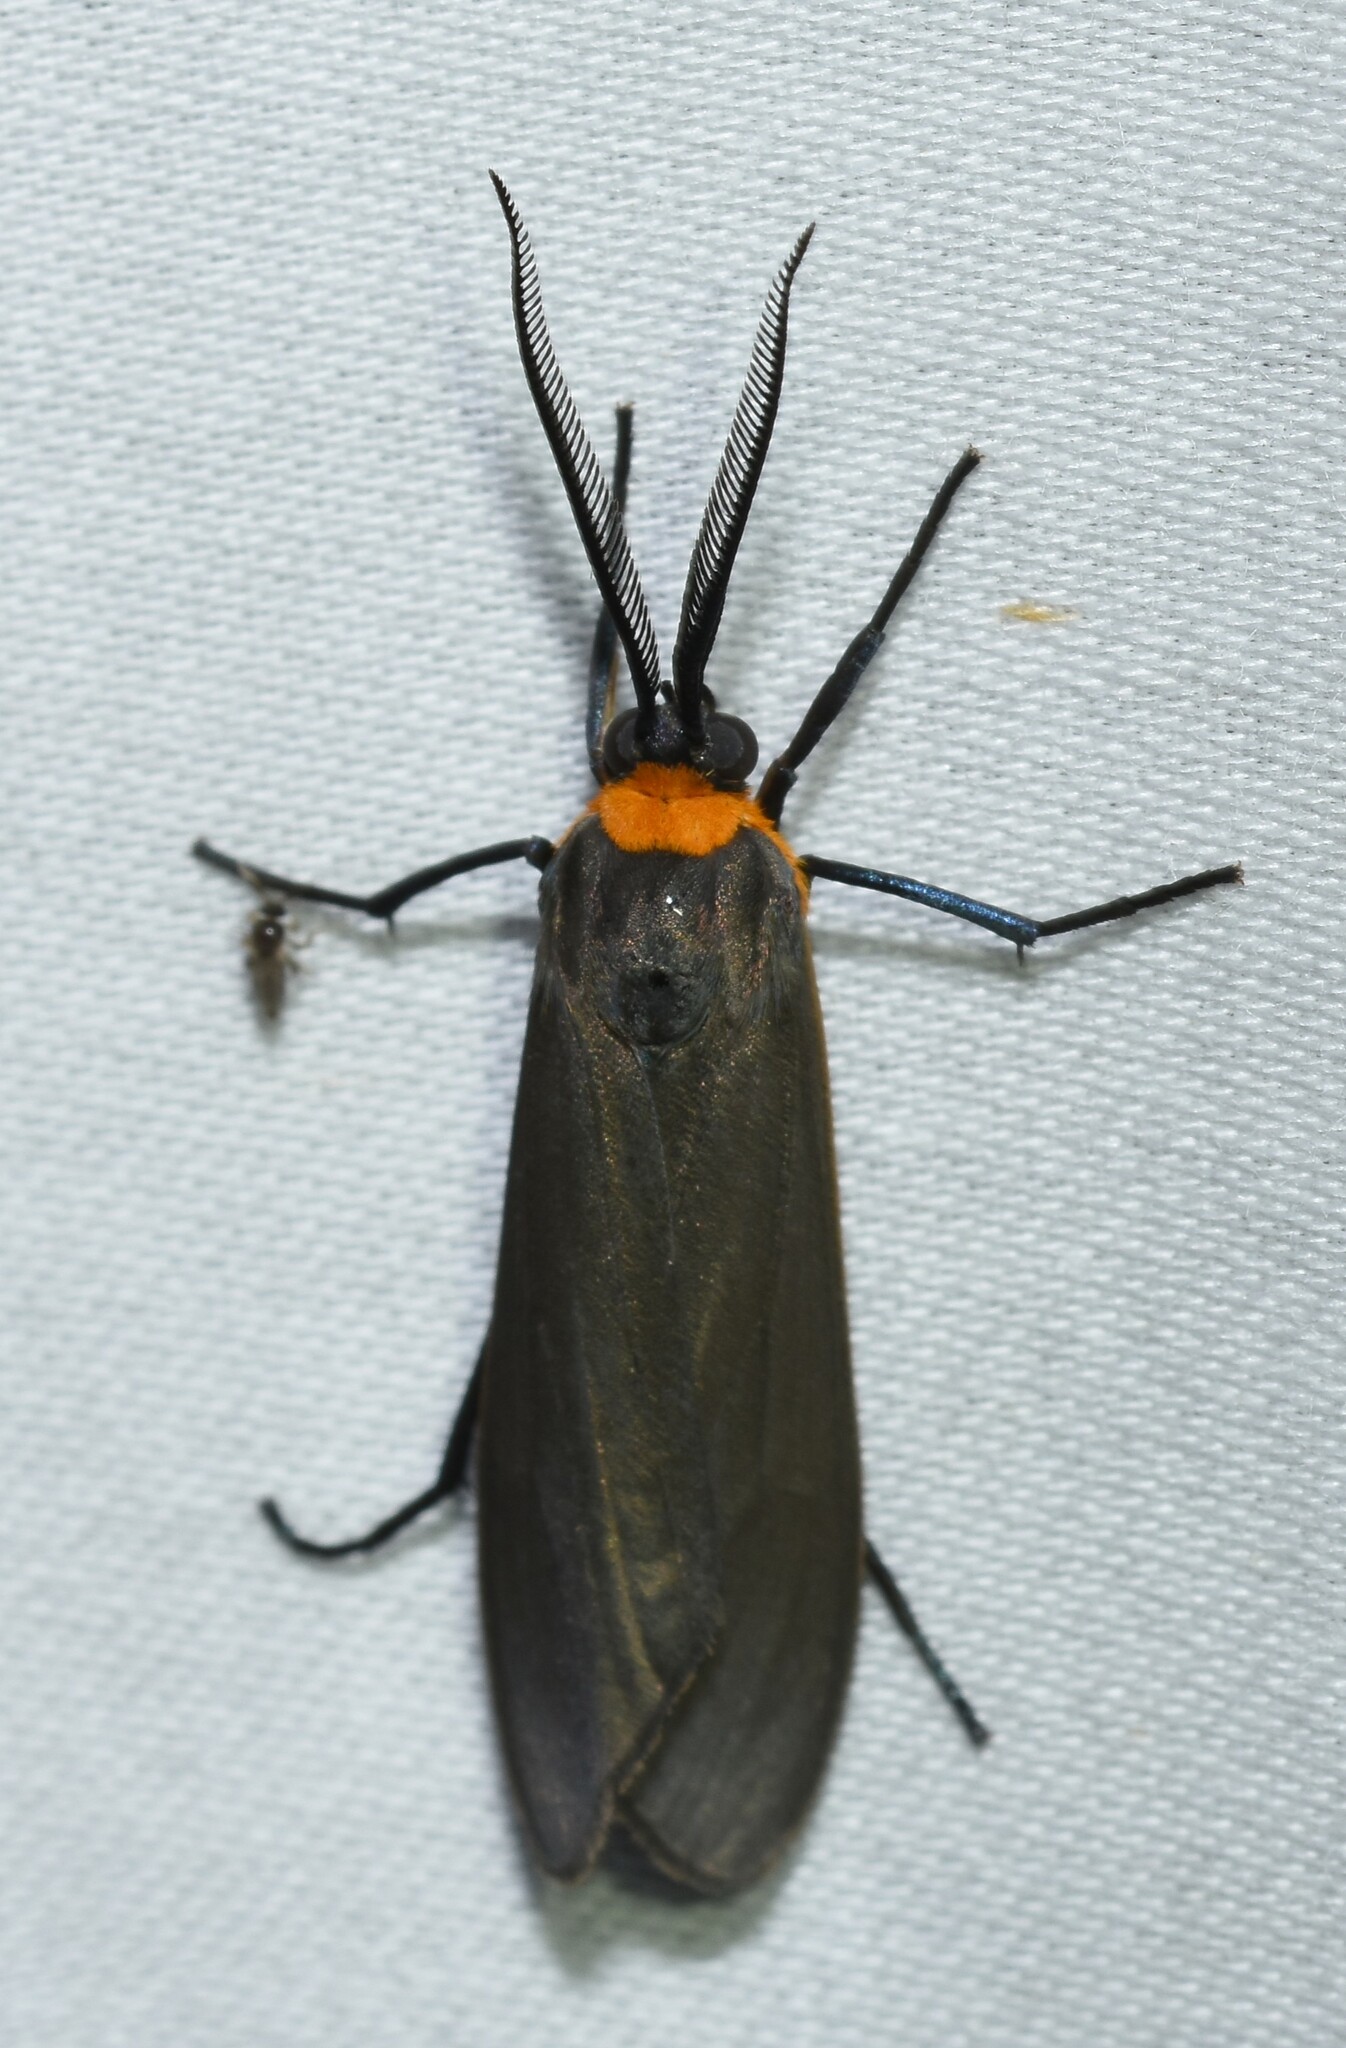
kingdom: Animalia
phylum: Arthropoda
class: Insecta
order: Lepidoptera
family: Erebidae
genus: Cisseps
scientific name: Cisseps fulvicollis
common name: Yellow-collared scape moth
